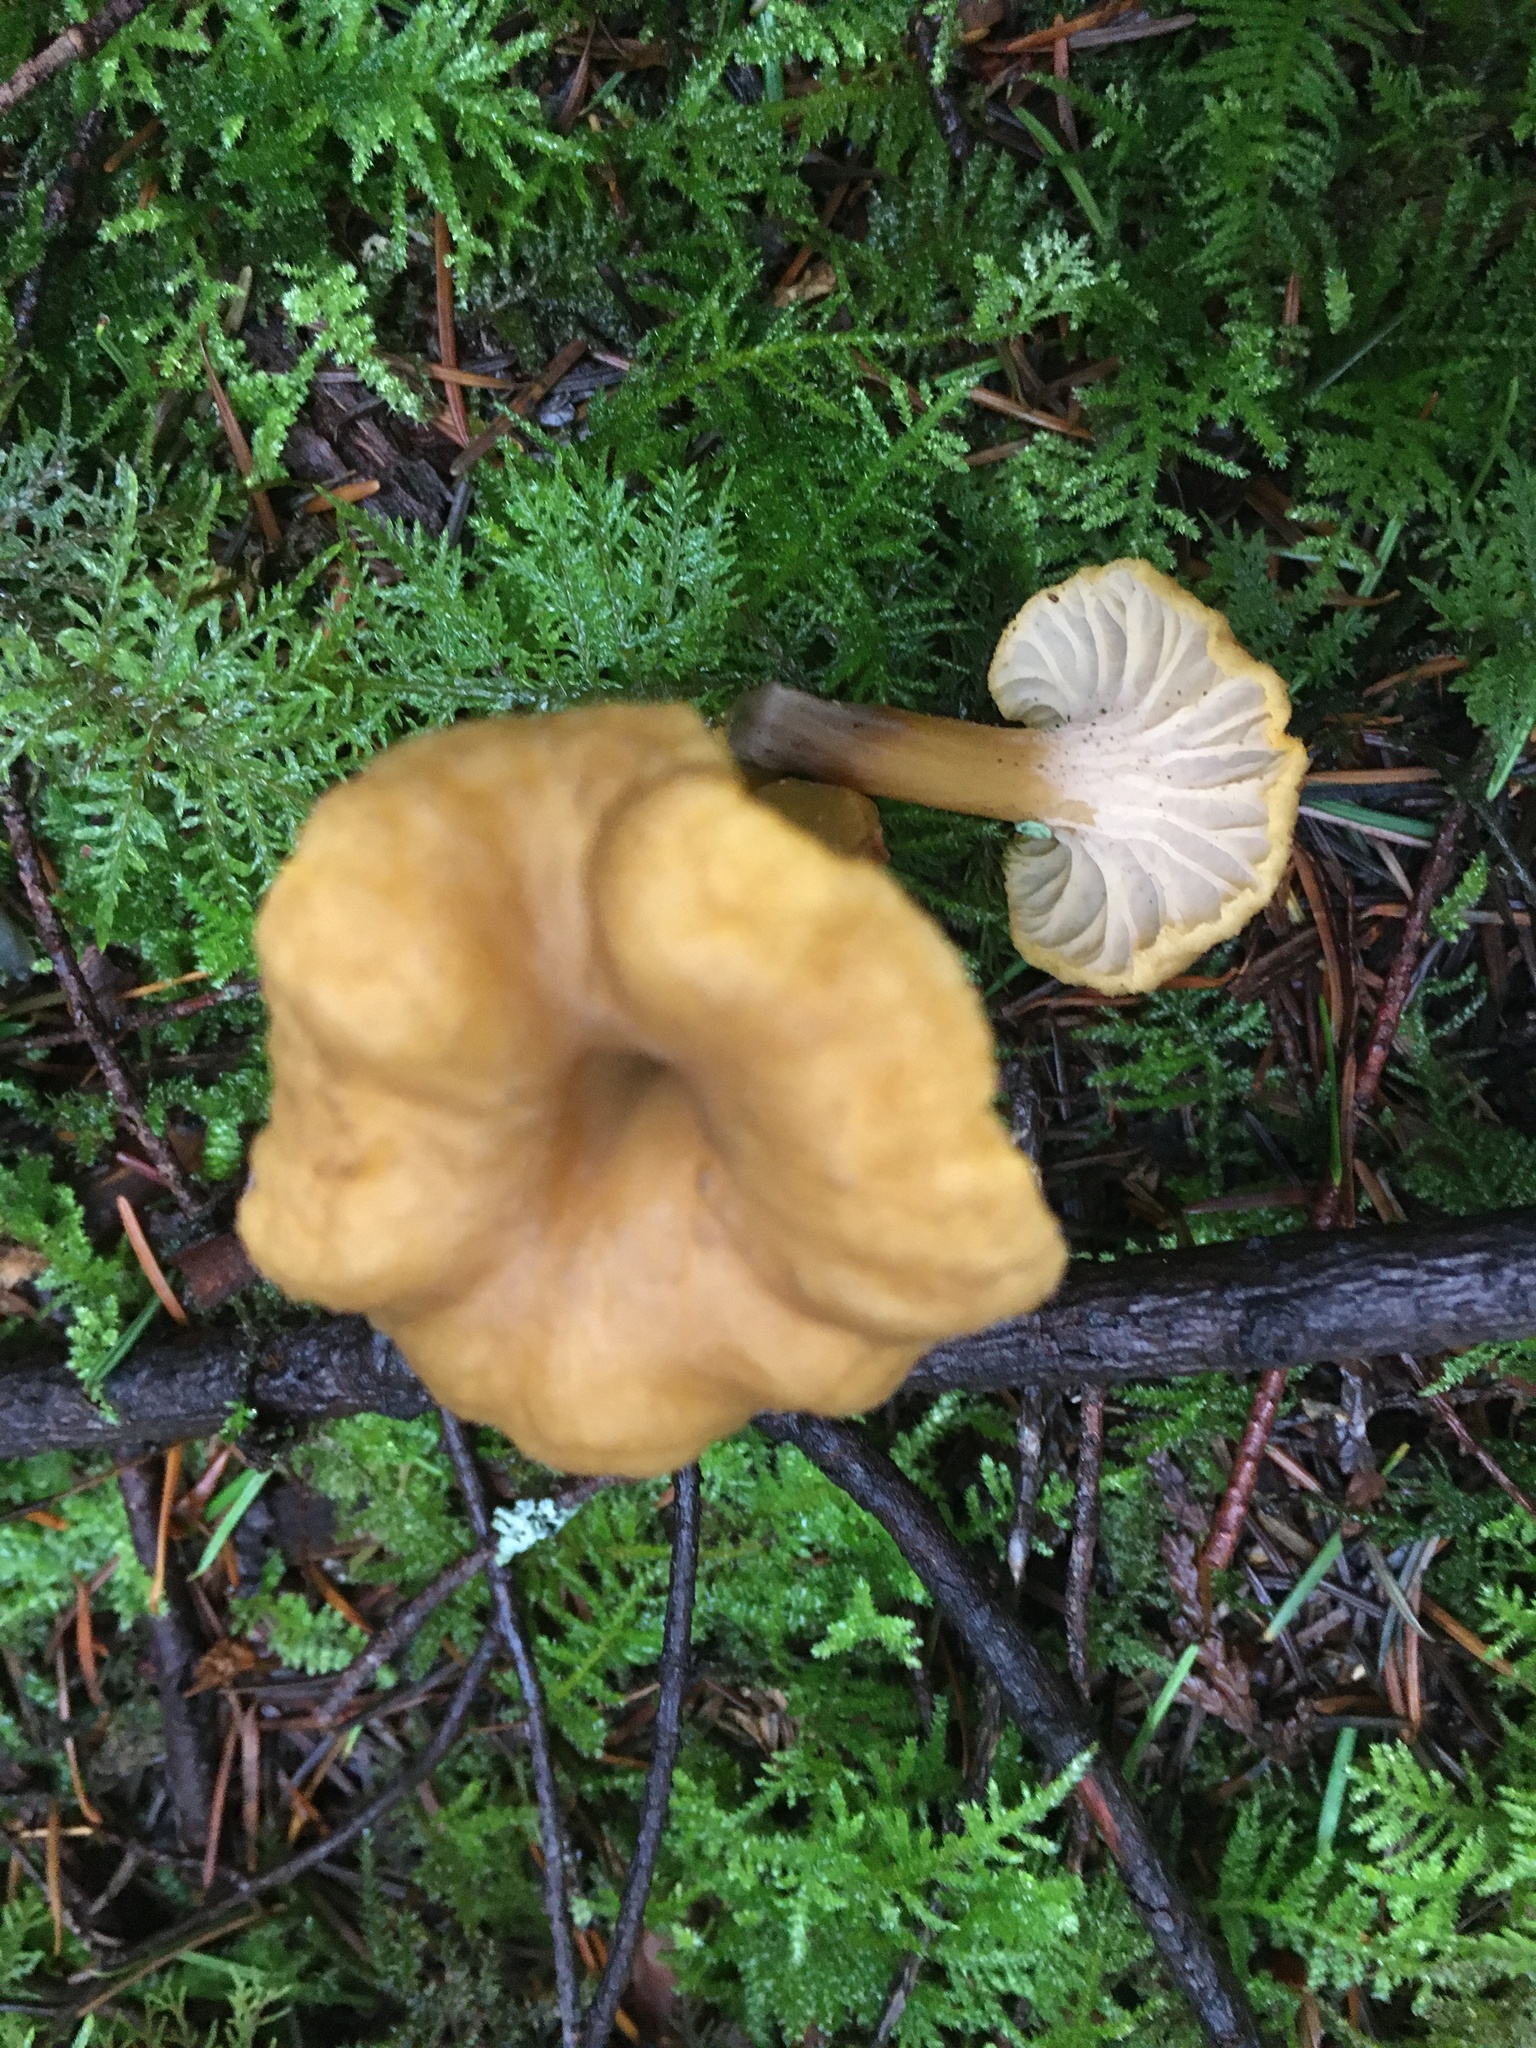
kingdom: Fungi
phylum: Basidiomycota
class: Agaricomycetes
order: Cantharellales
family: Hydnaceae
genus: Craterellus
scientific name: Craterellus tubaeformis
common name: Yellowfoot
